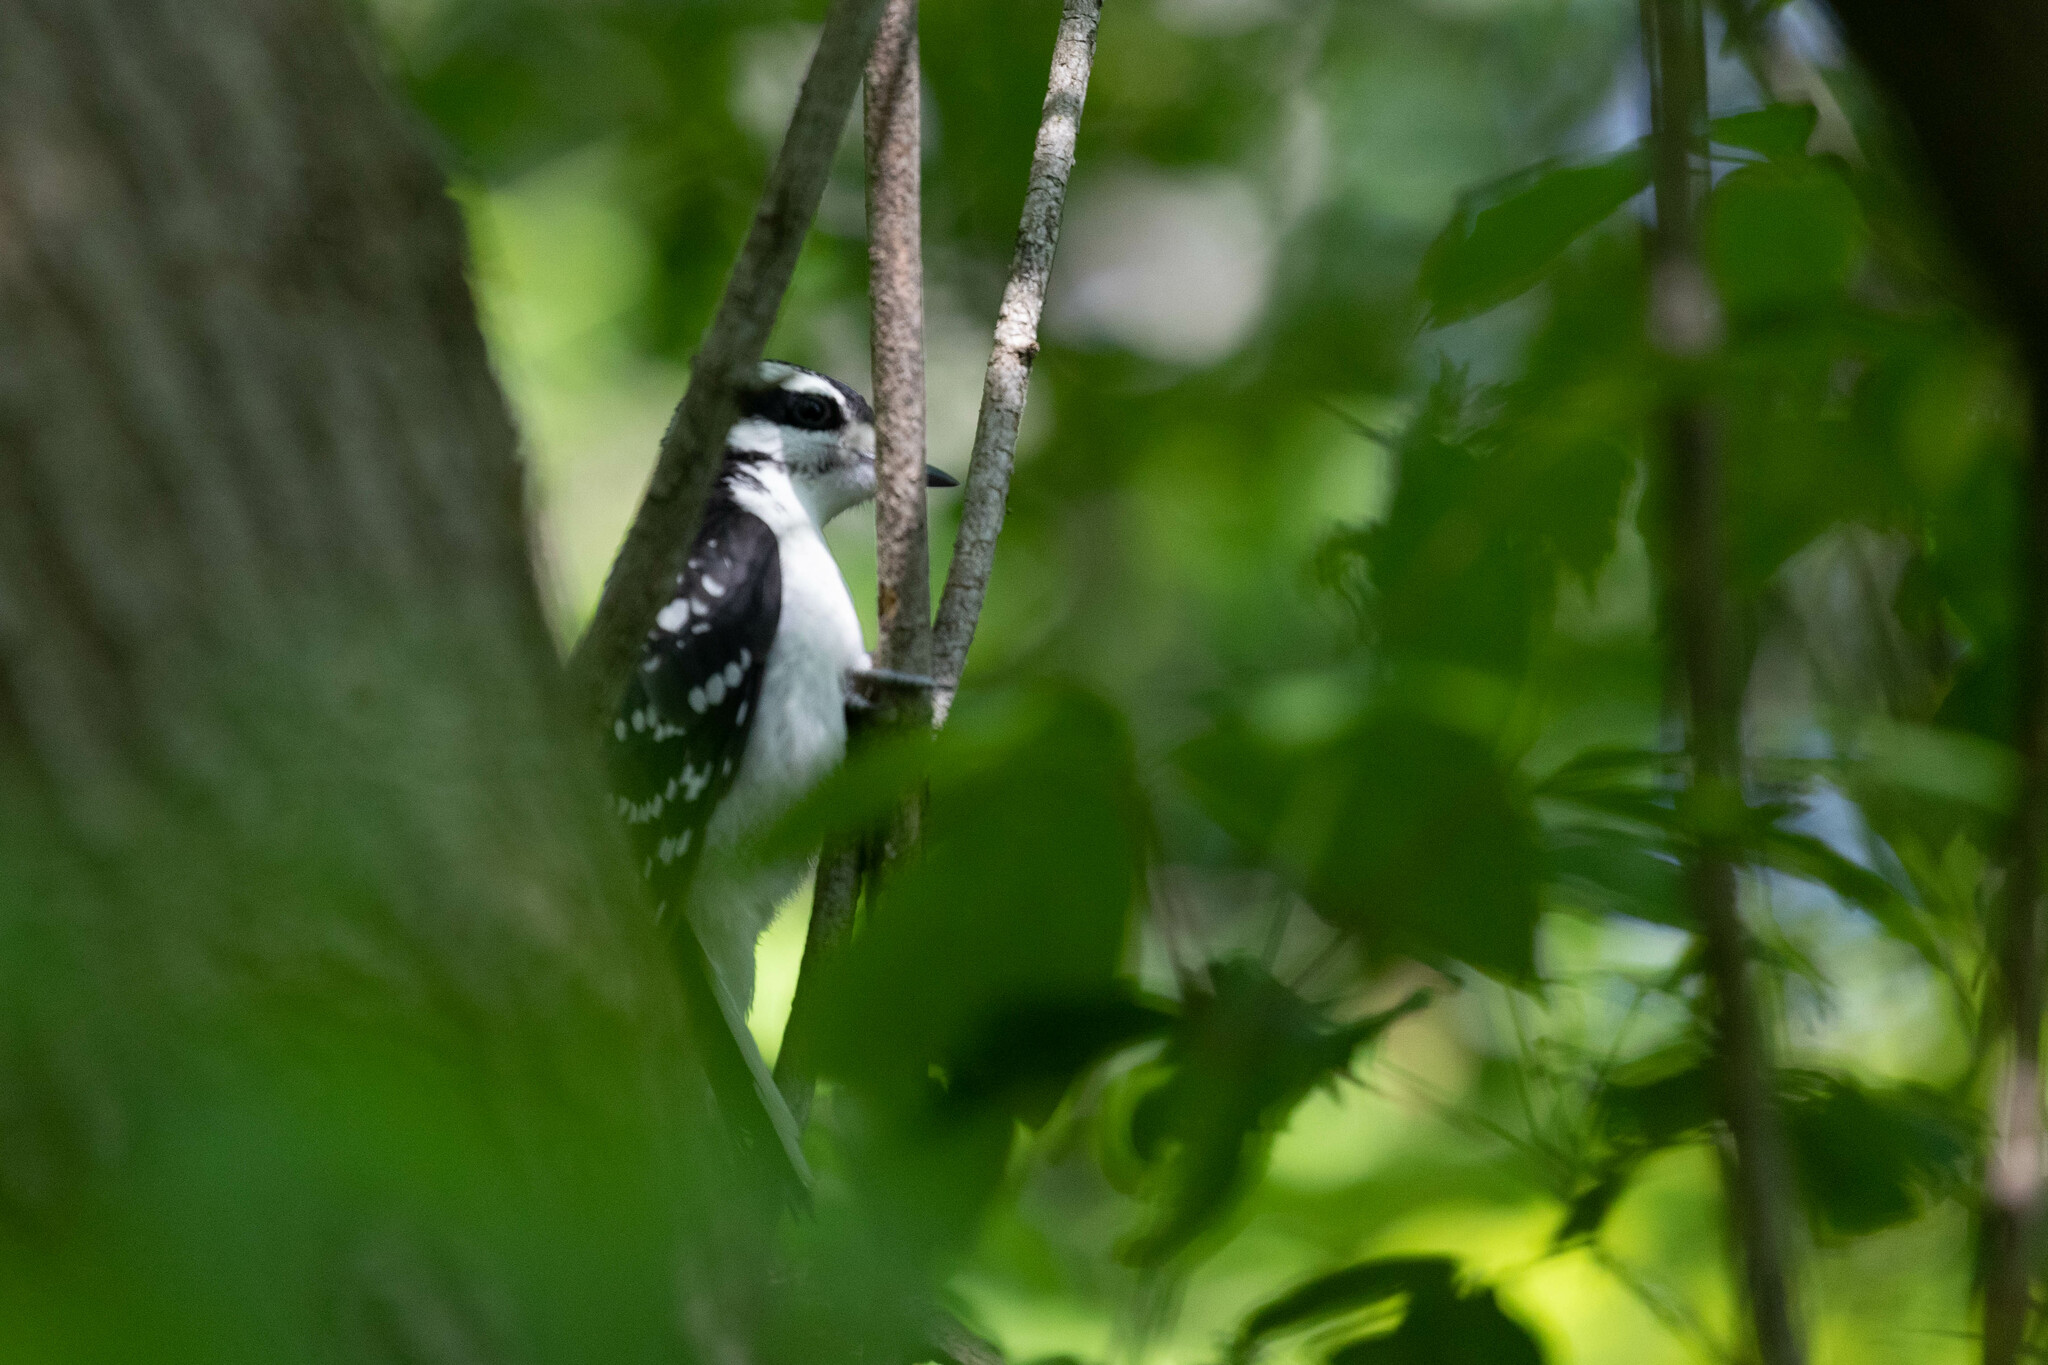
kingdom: Animalia
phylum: Chordata
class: Aves
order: Piciformes
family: Picidae
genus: Dryobates
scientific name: Dryobates pubescens
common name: Downy woodpecker
